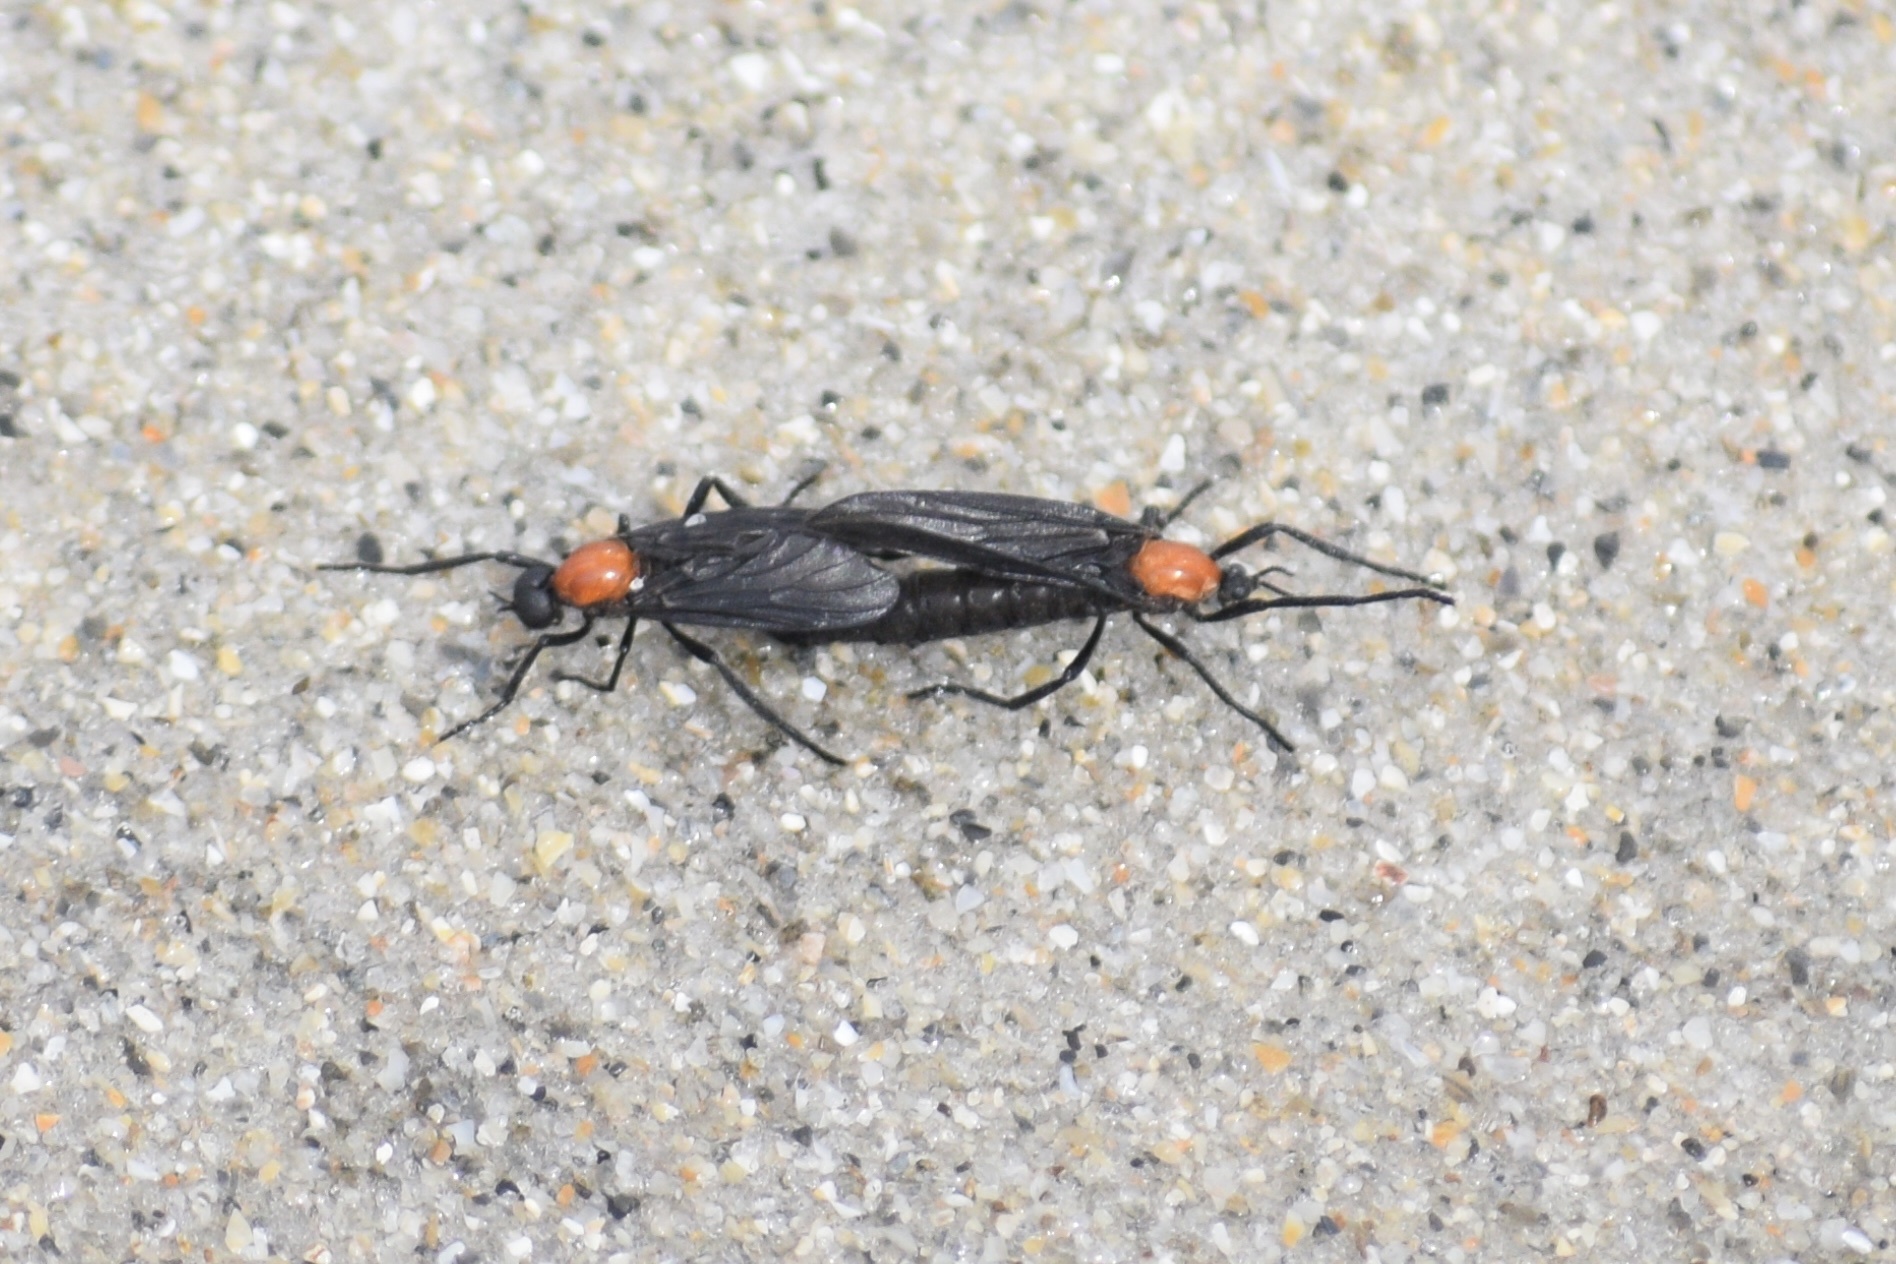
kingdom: Animalia
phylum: Arthropoda
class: Insecta
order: Diptera
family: Bibionidae
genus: Plecia
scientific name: Plecia nearctica
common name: March fly
